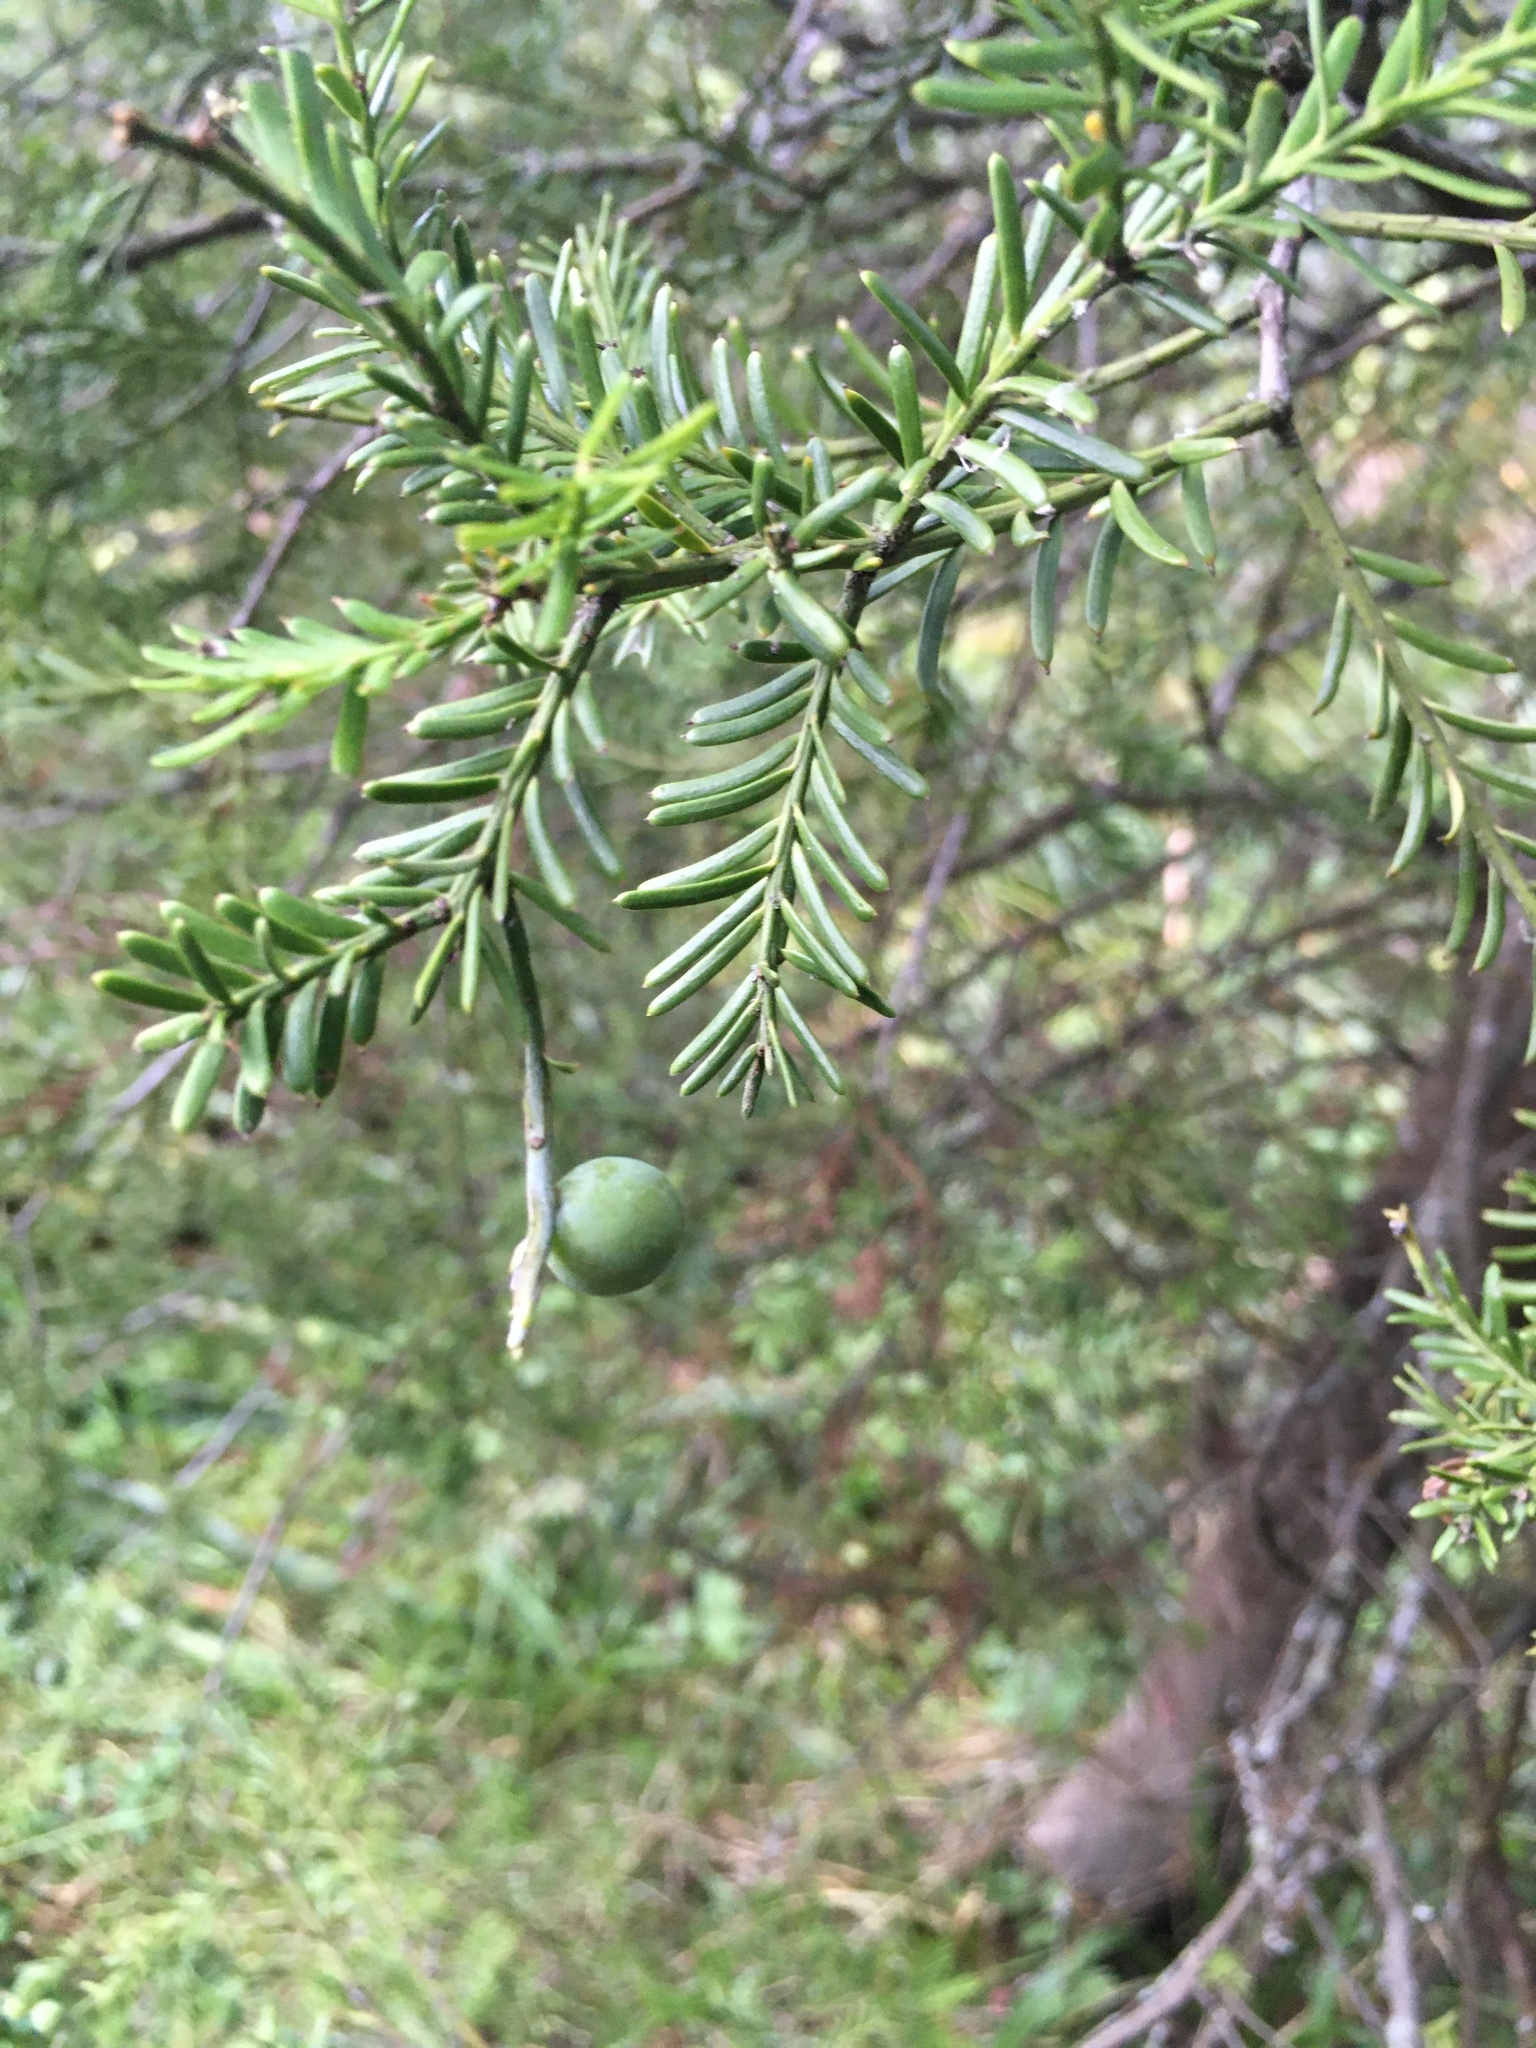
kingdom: Plantae
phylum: Tracheophyta
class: Pinopsida
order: Pinales
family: Podocarpaceae
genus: Prumnopitys
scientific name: Prumnopitys taxifolia
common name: Matai
